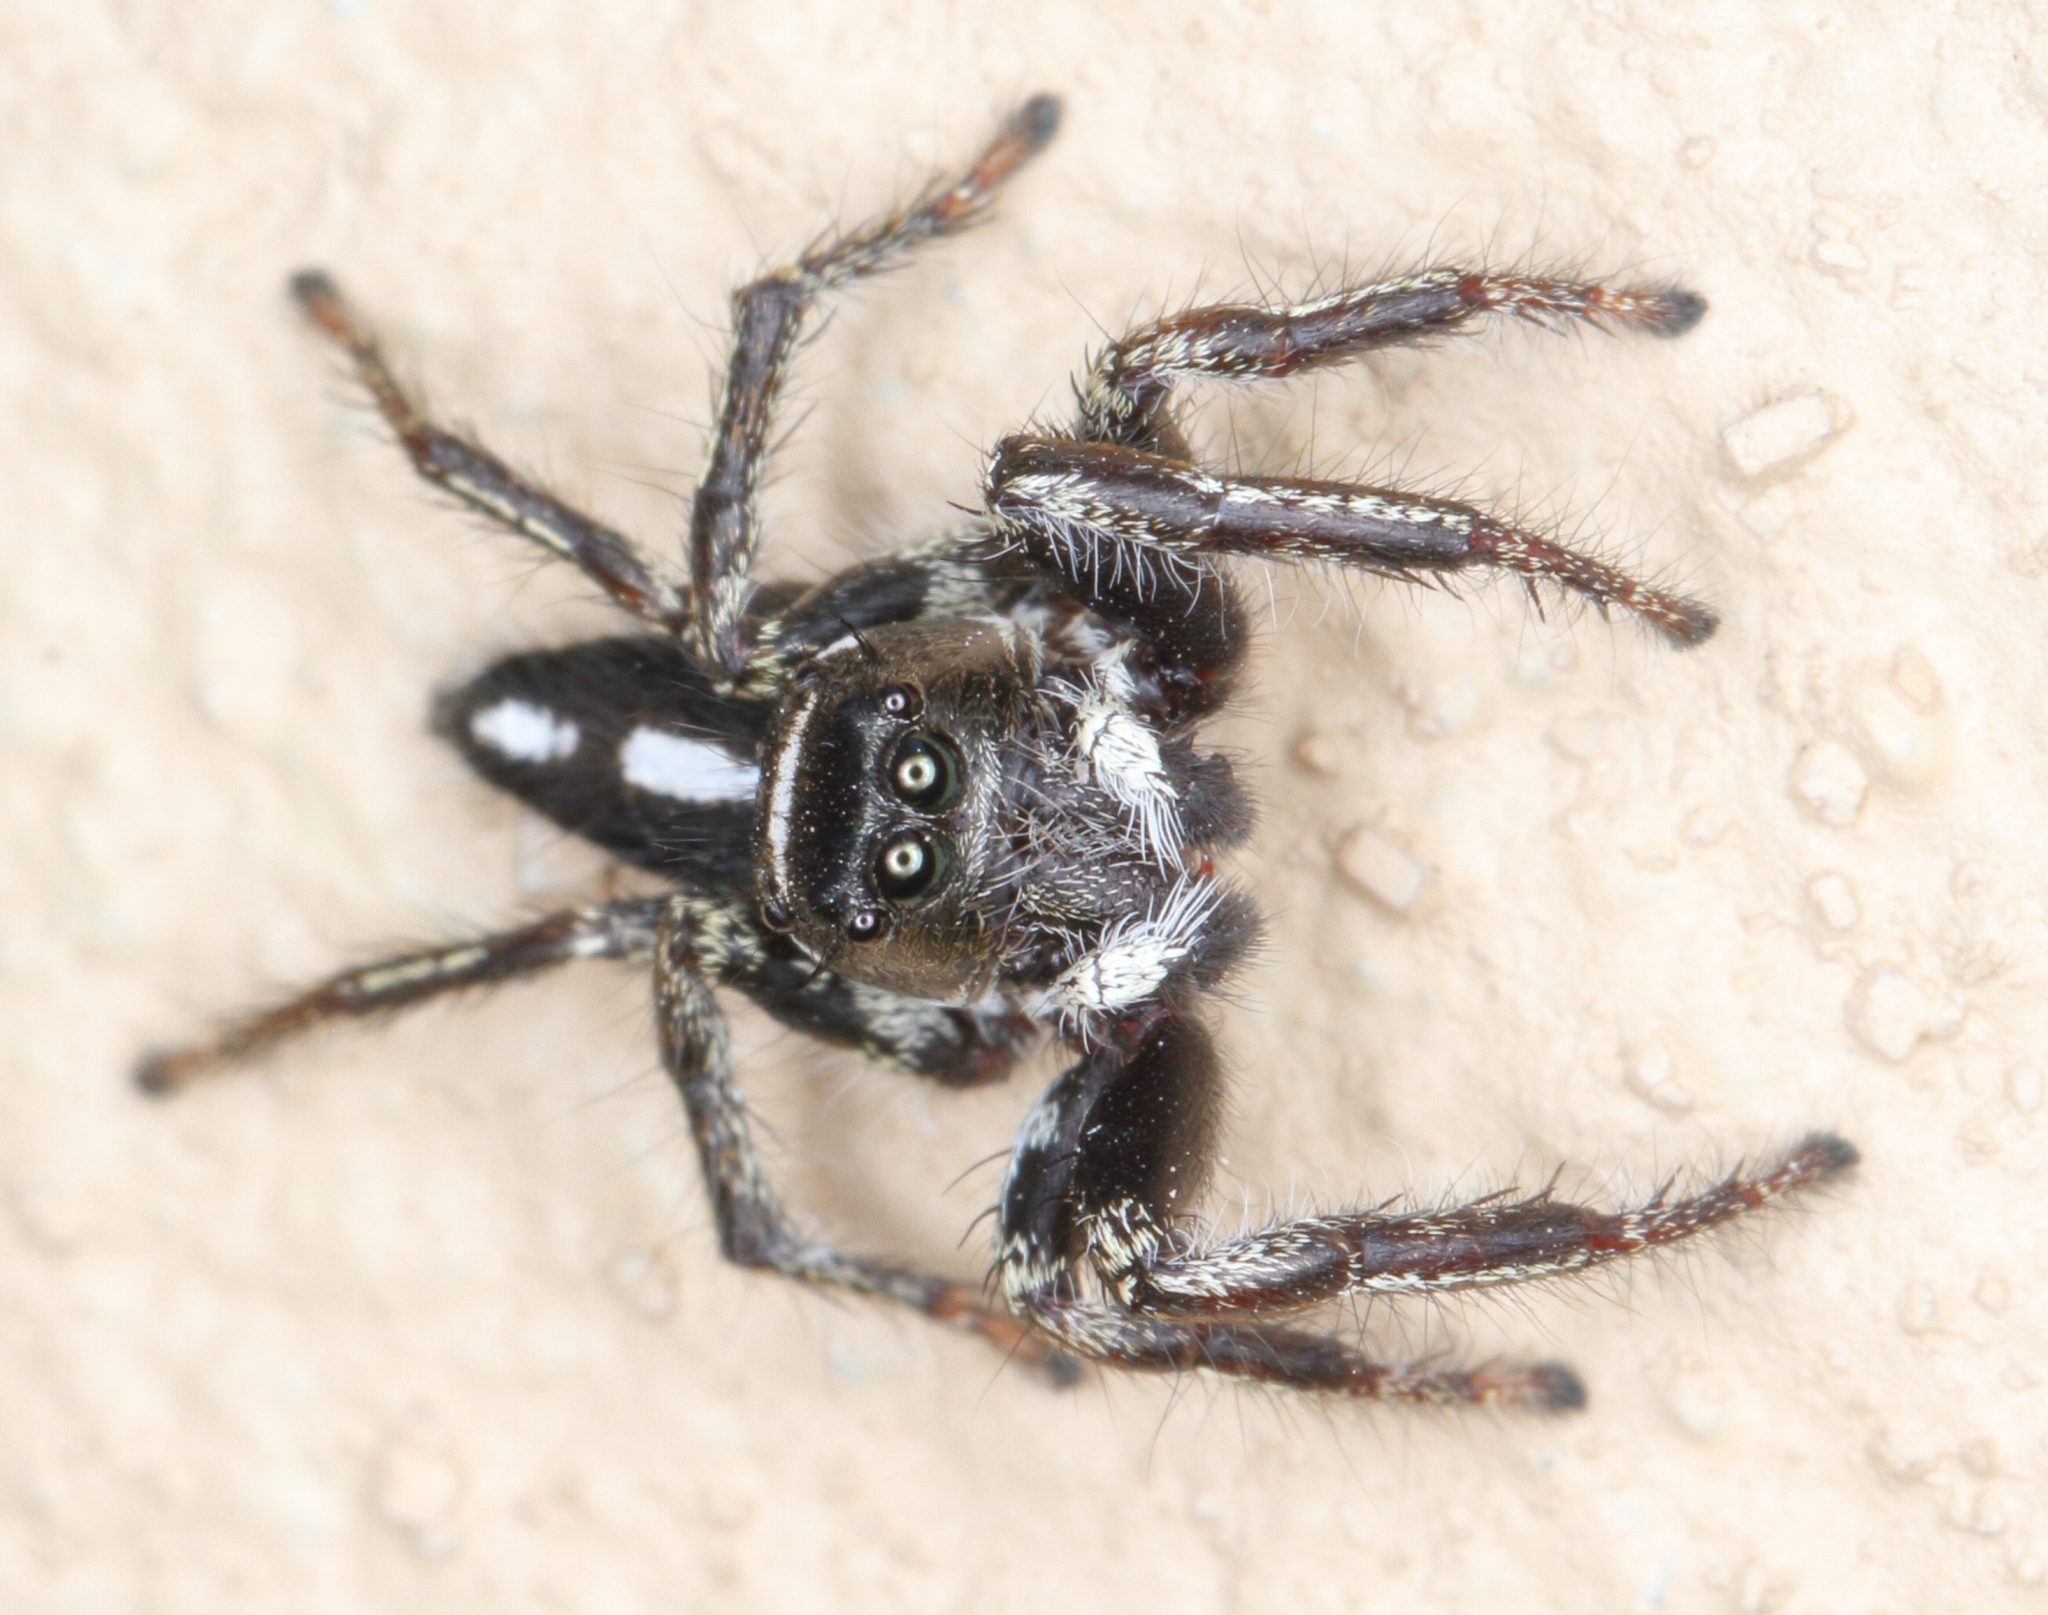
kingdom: Animalia
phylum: Arthropoda
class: Arachnida
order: Araneae
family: Salticidae
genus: Hyllus
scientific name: Hyllus argyrotoxus
